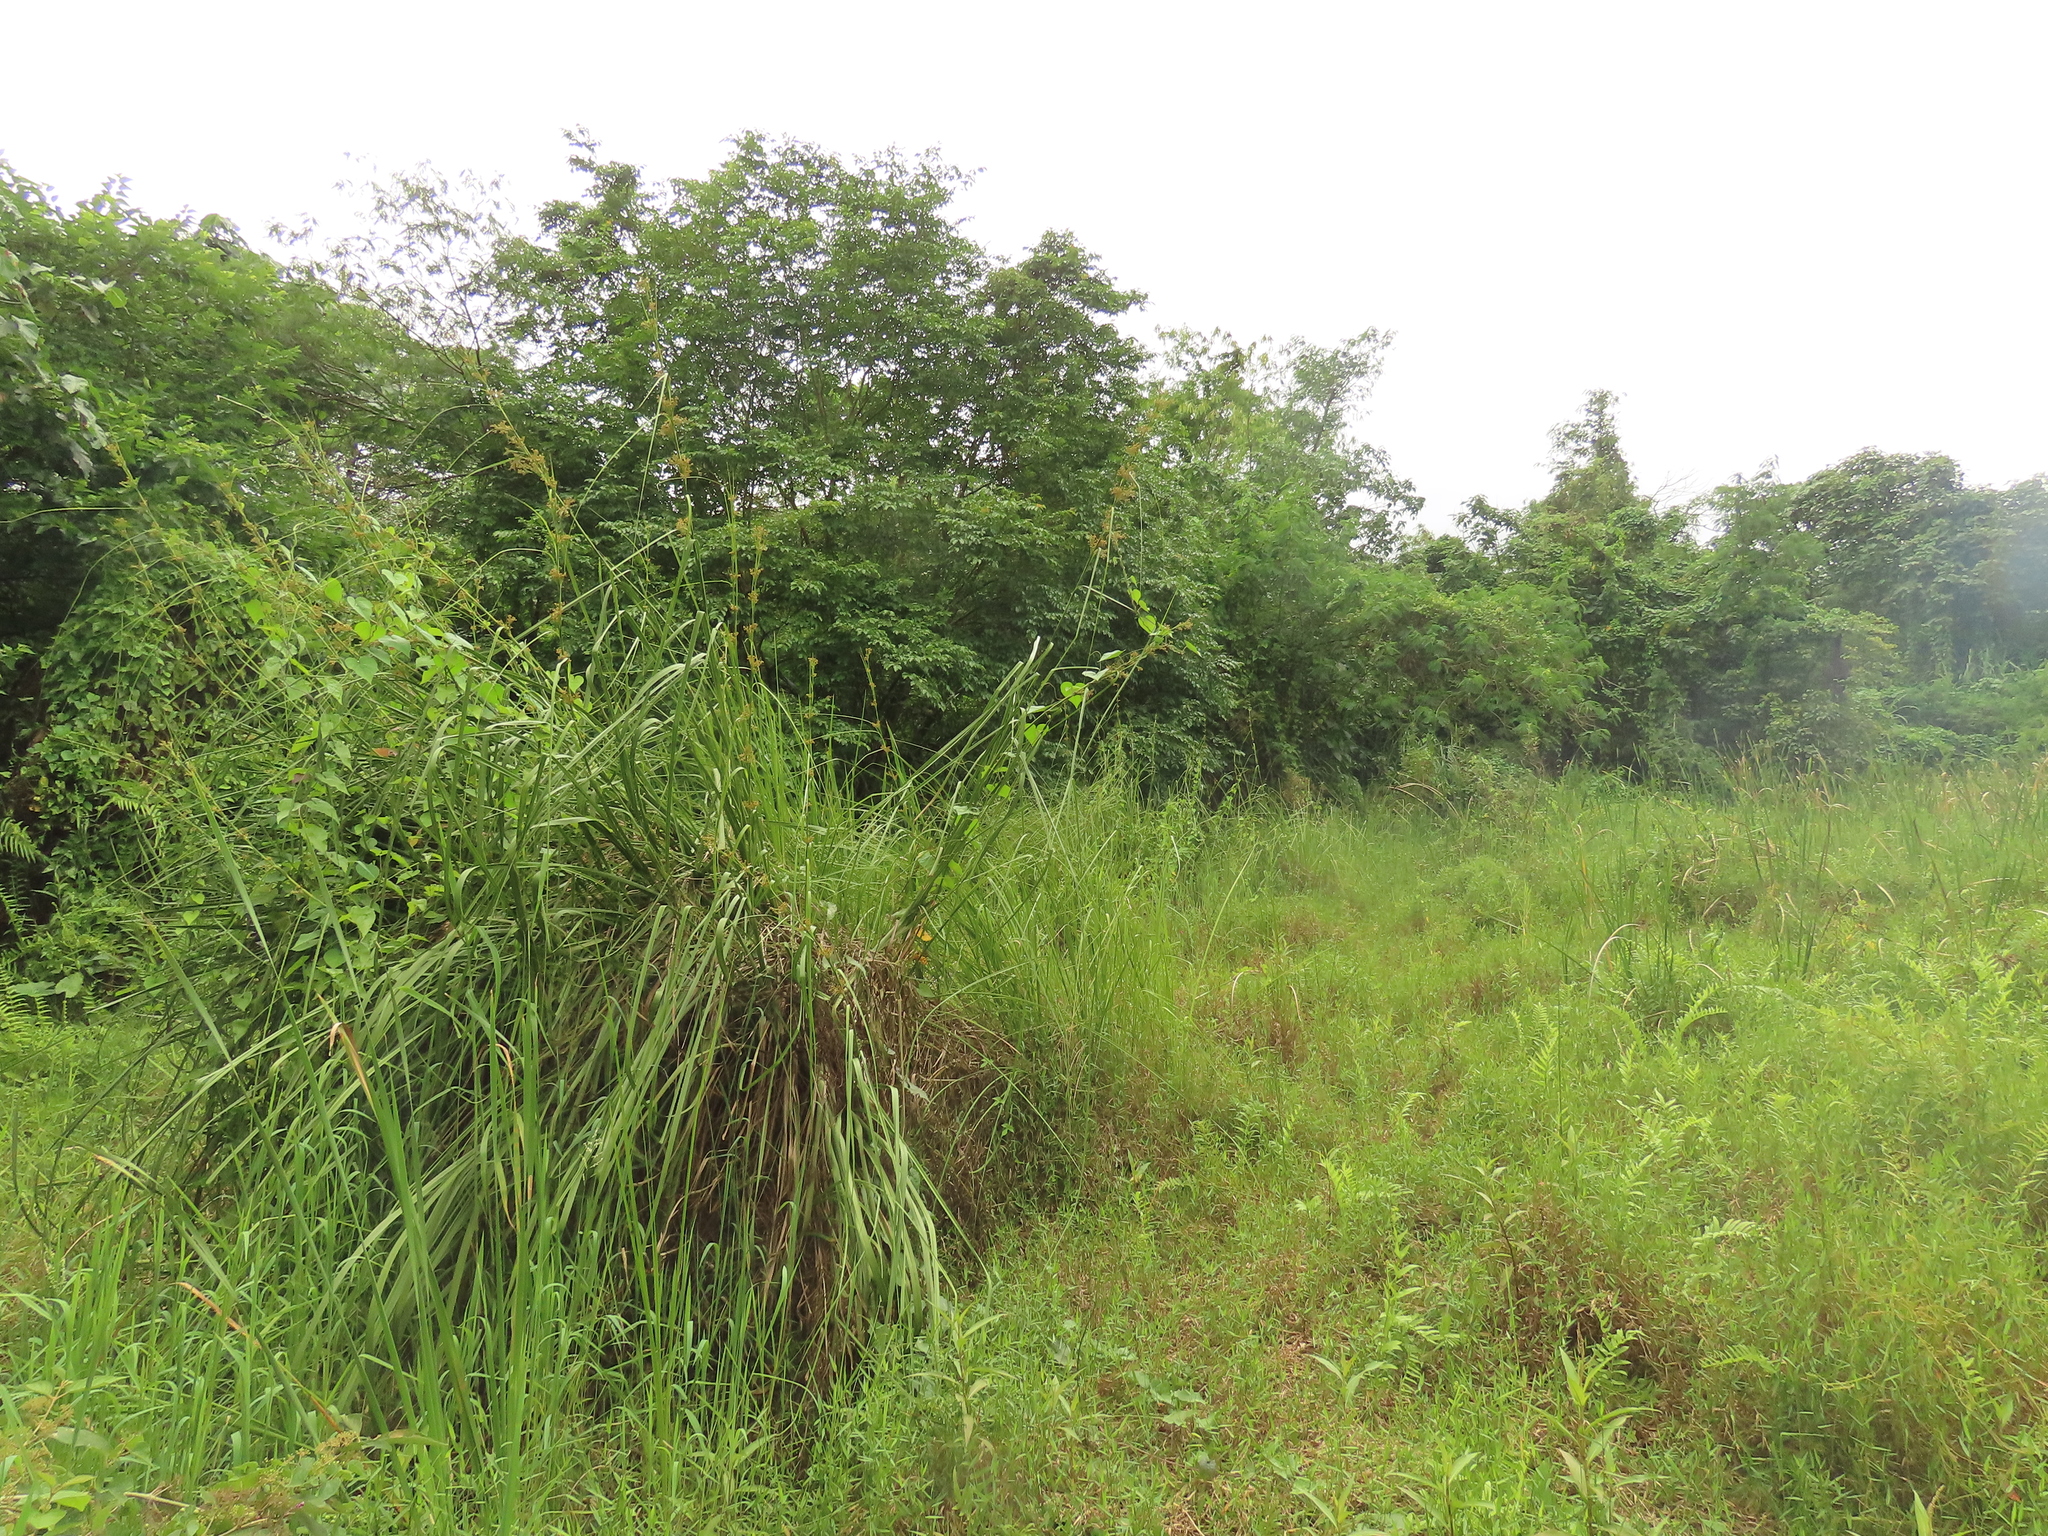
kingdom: Plantae
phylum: Tracheophyta
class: Liliopsida
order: Poales
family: Cyperaceae
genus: Cladium
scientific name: Cladium mariscus
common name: Great fen-sedge
